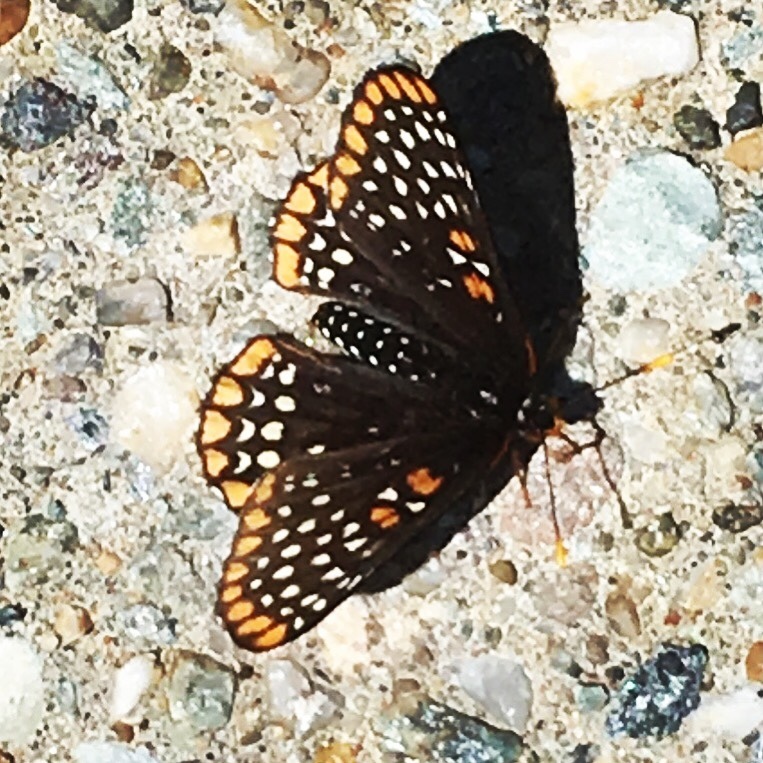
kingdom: Animalia
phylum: Arthropoda
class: Insecta
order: Lepidoptera
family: Nymphalidae
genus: Euphydryas
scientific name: Euphydryas phaeton
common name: Baltimore checkerspot
